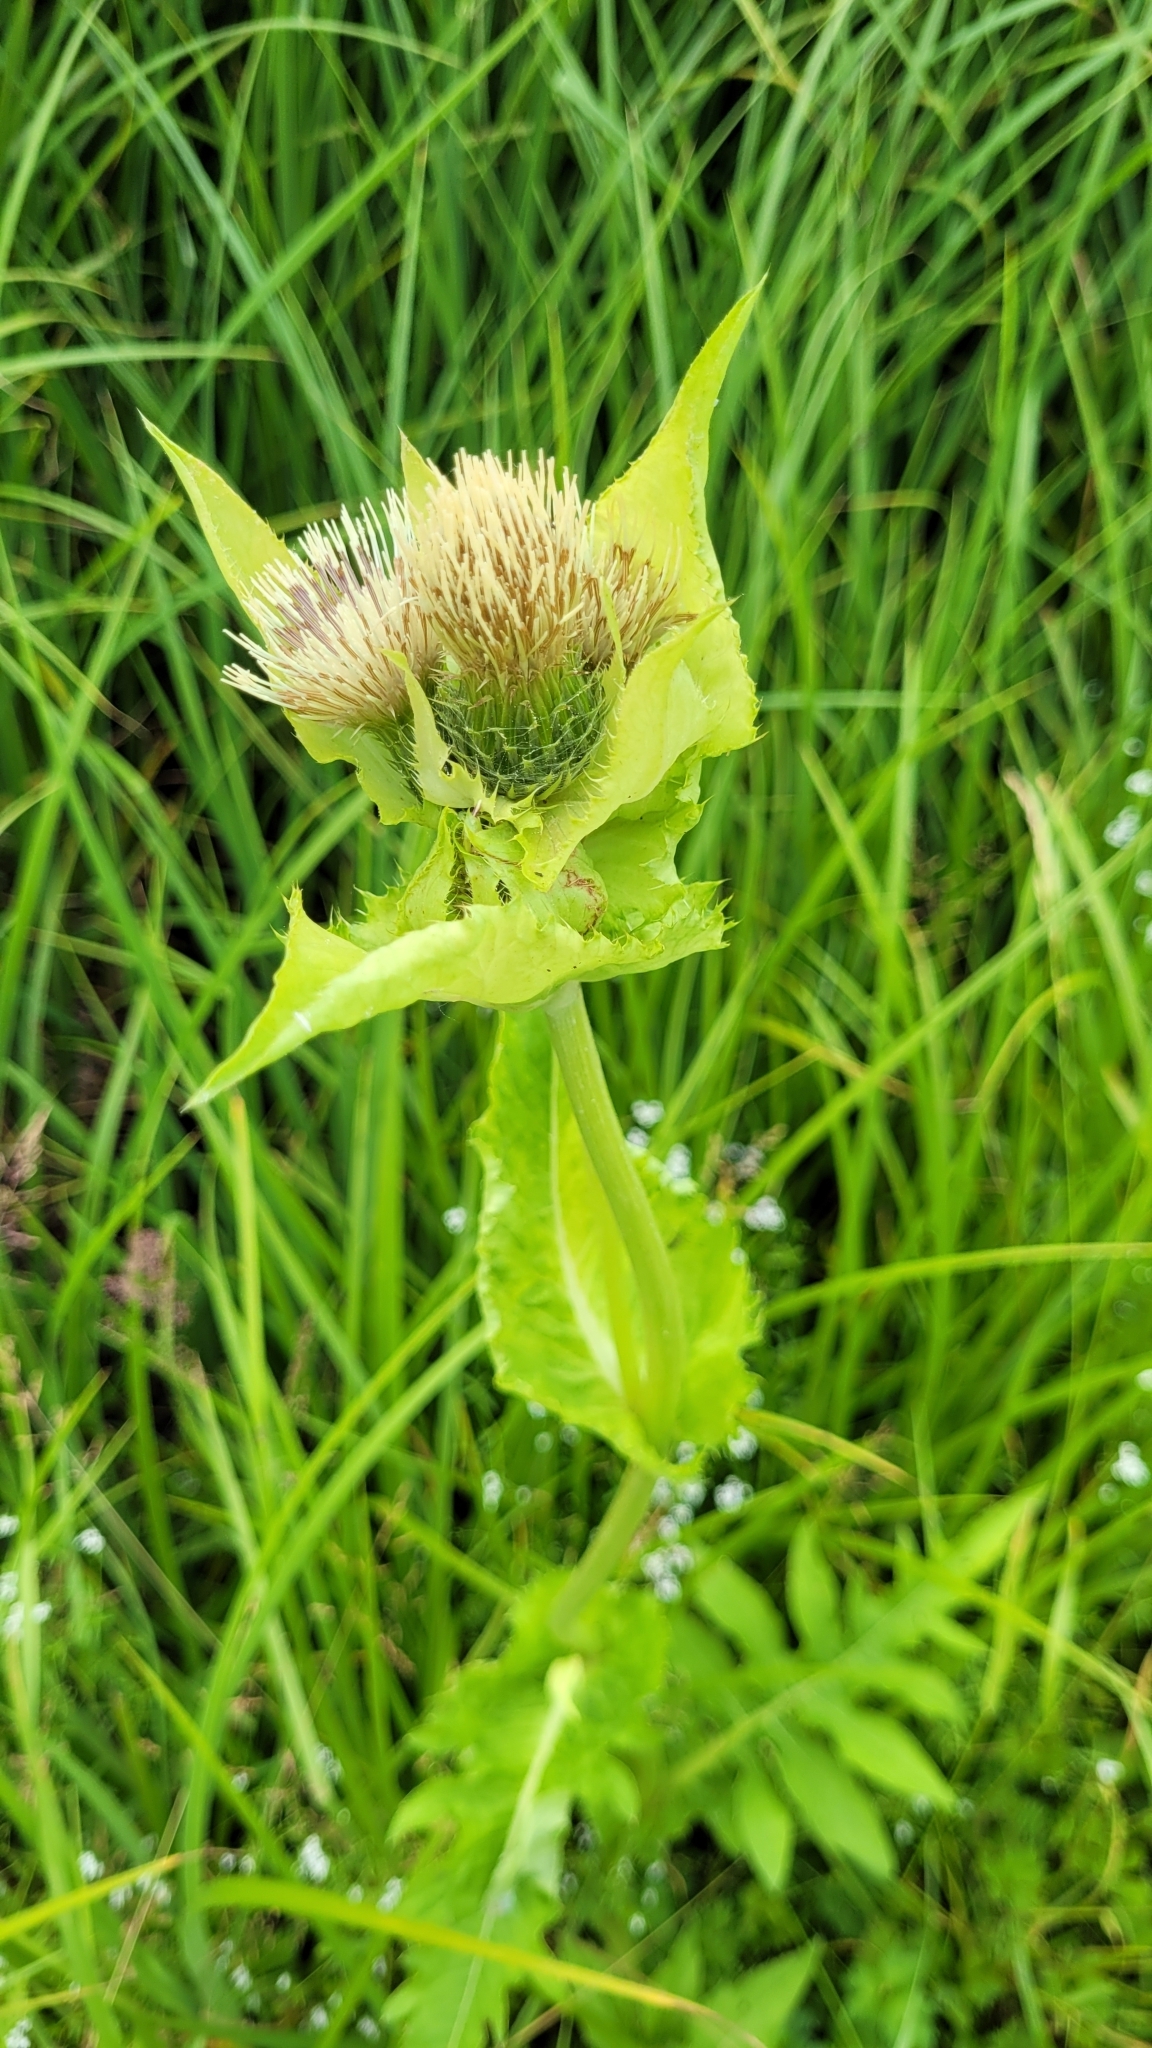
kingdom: Plantae
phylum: Tracheophyta
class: Magnoliopsida
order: Asterales
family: Asteraceae
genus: Cirsium
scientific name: Cirsium oleraceum
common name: Cabbage thistle
